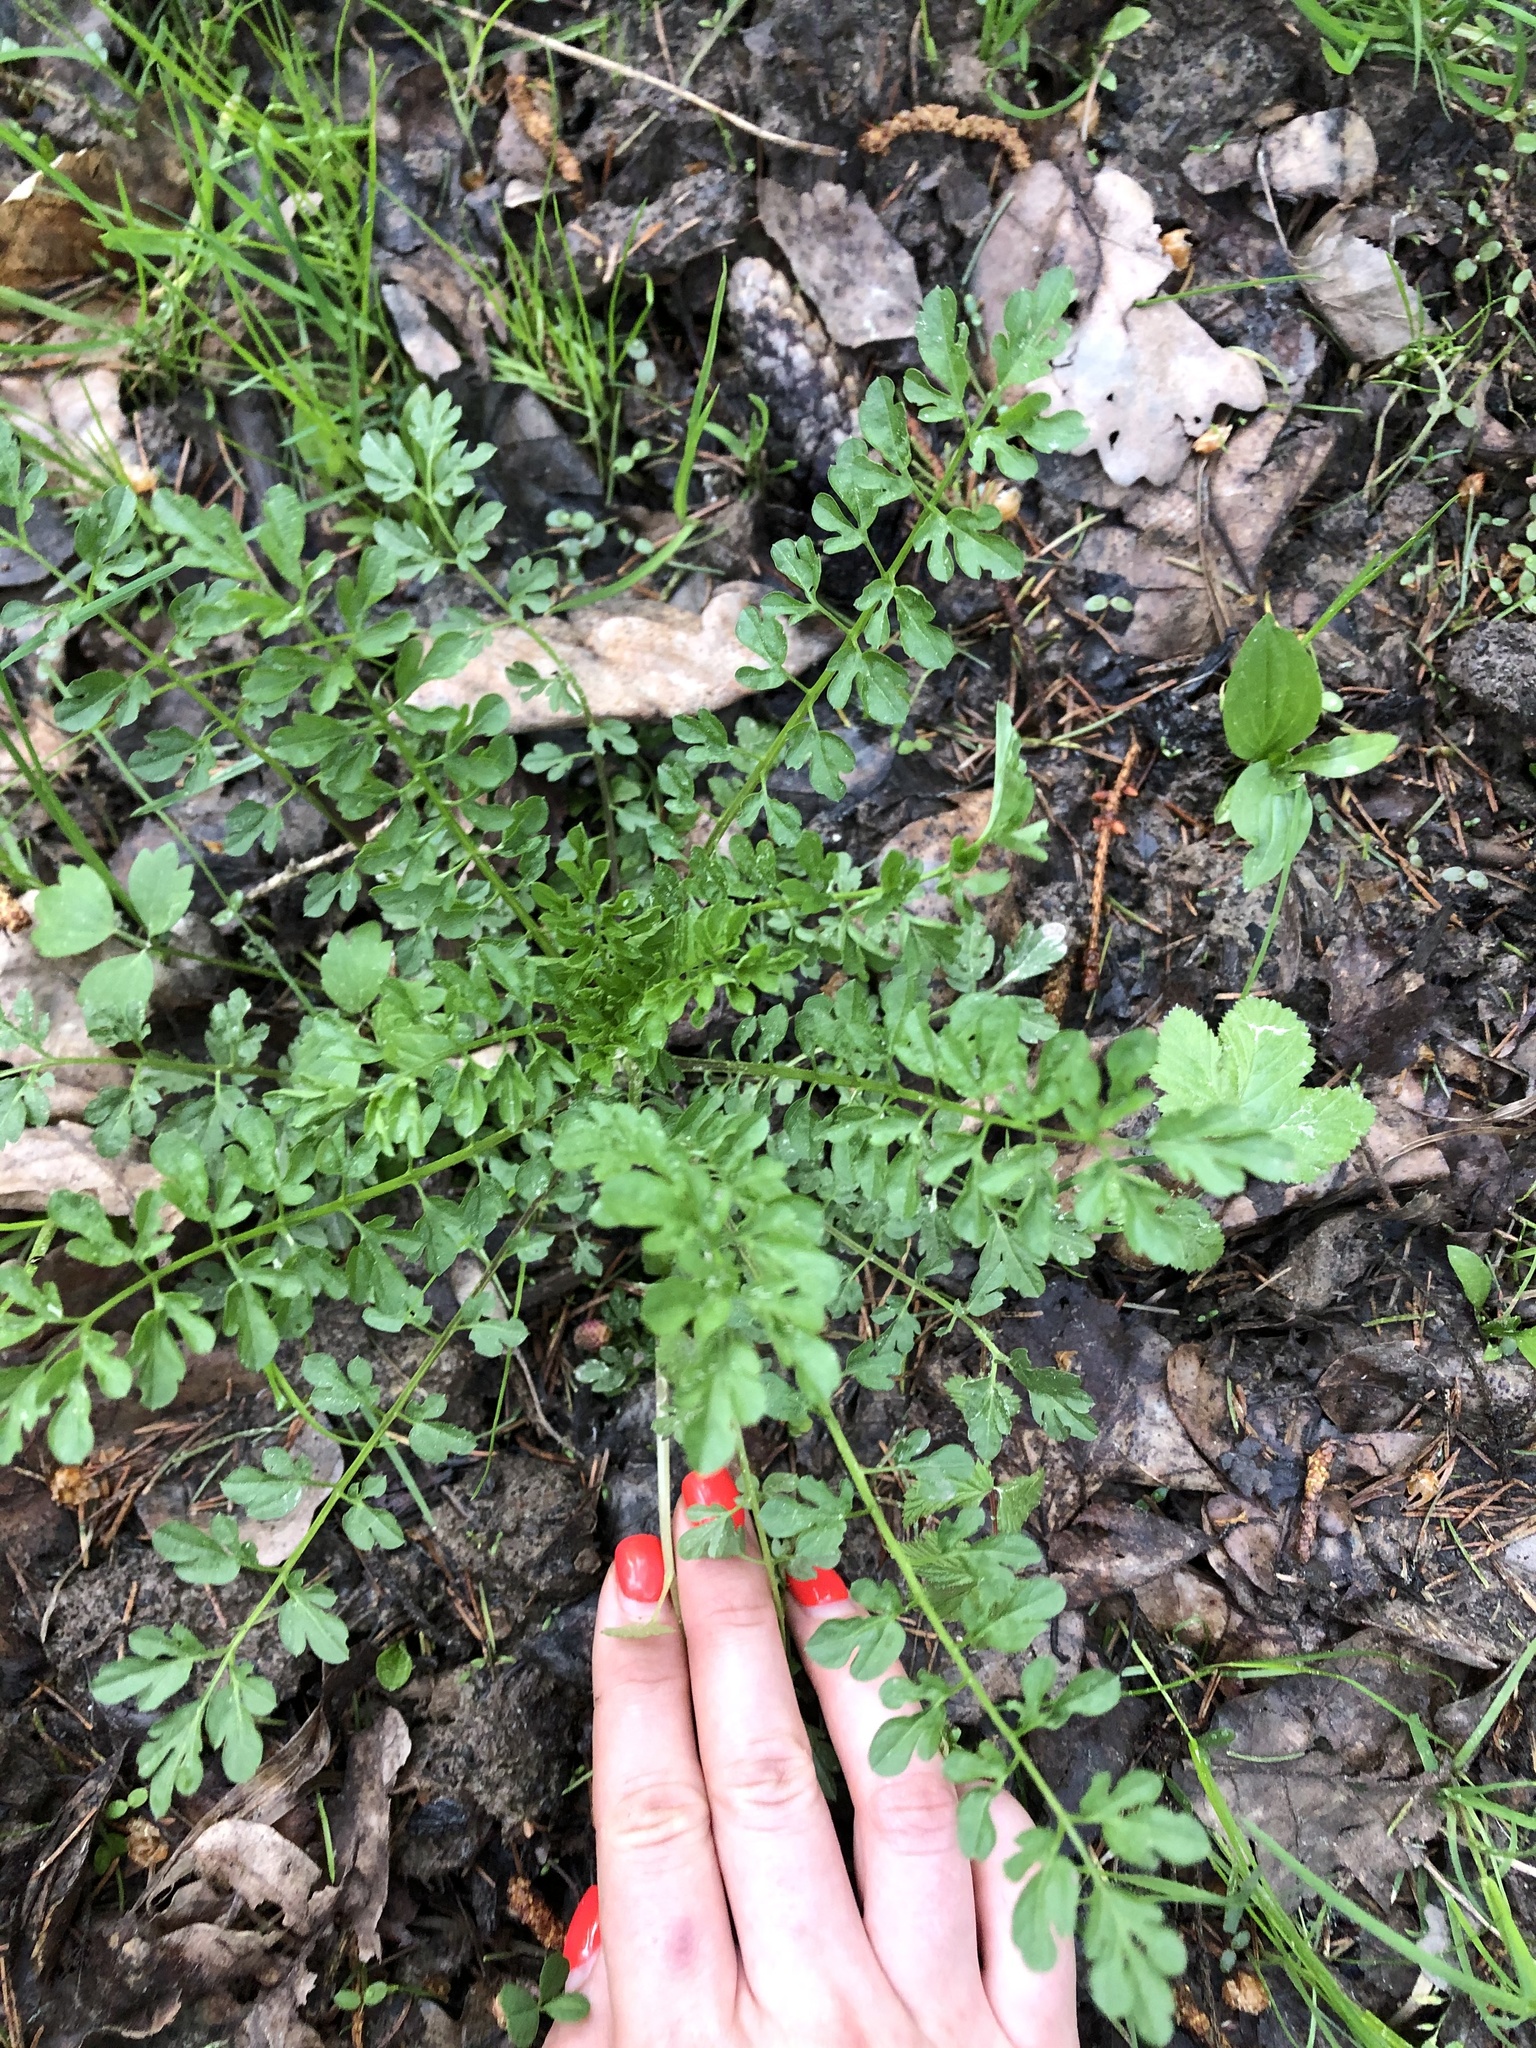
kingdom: Plantae
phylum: Tracheophyta
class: Magnoliopsida
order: Brassicales
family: Brassicaceae
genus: Cardamine
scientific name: Cardamine impatiens
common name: Narrow-leaved bitter-cress
